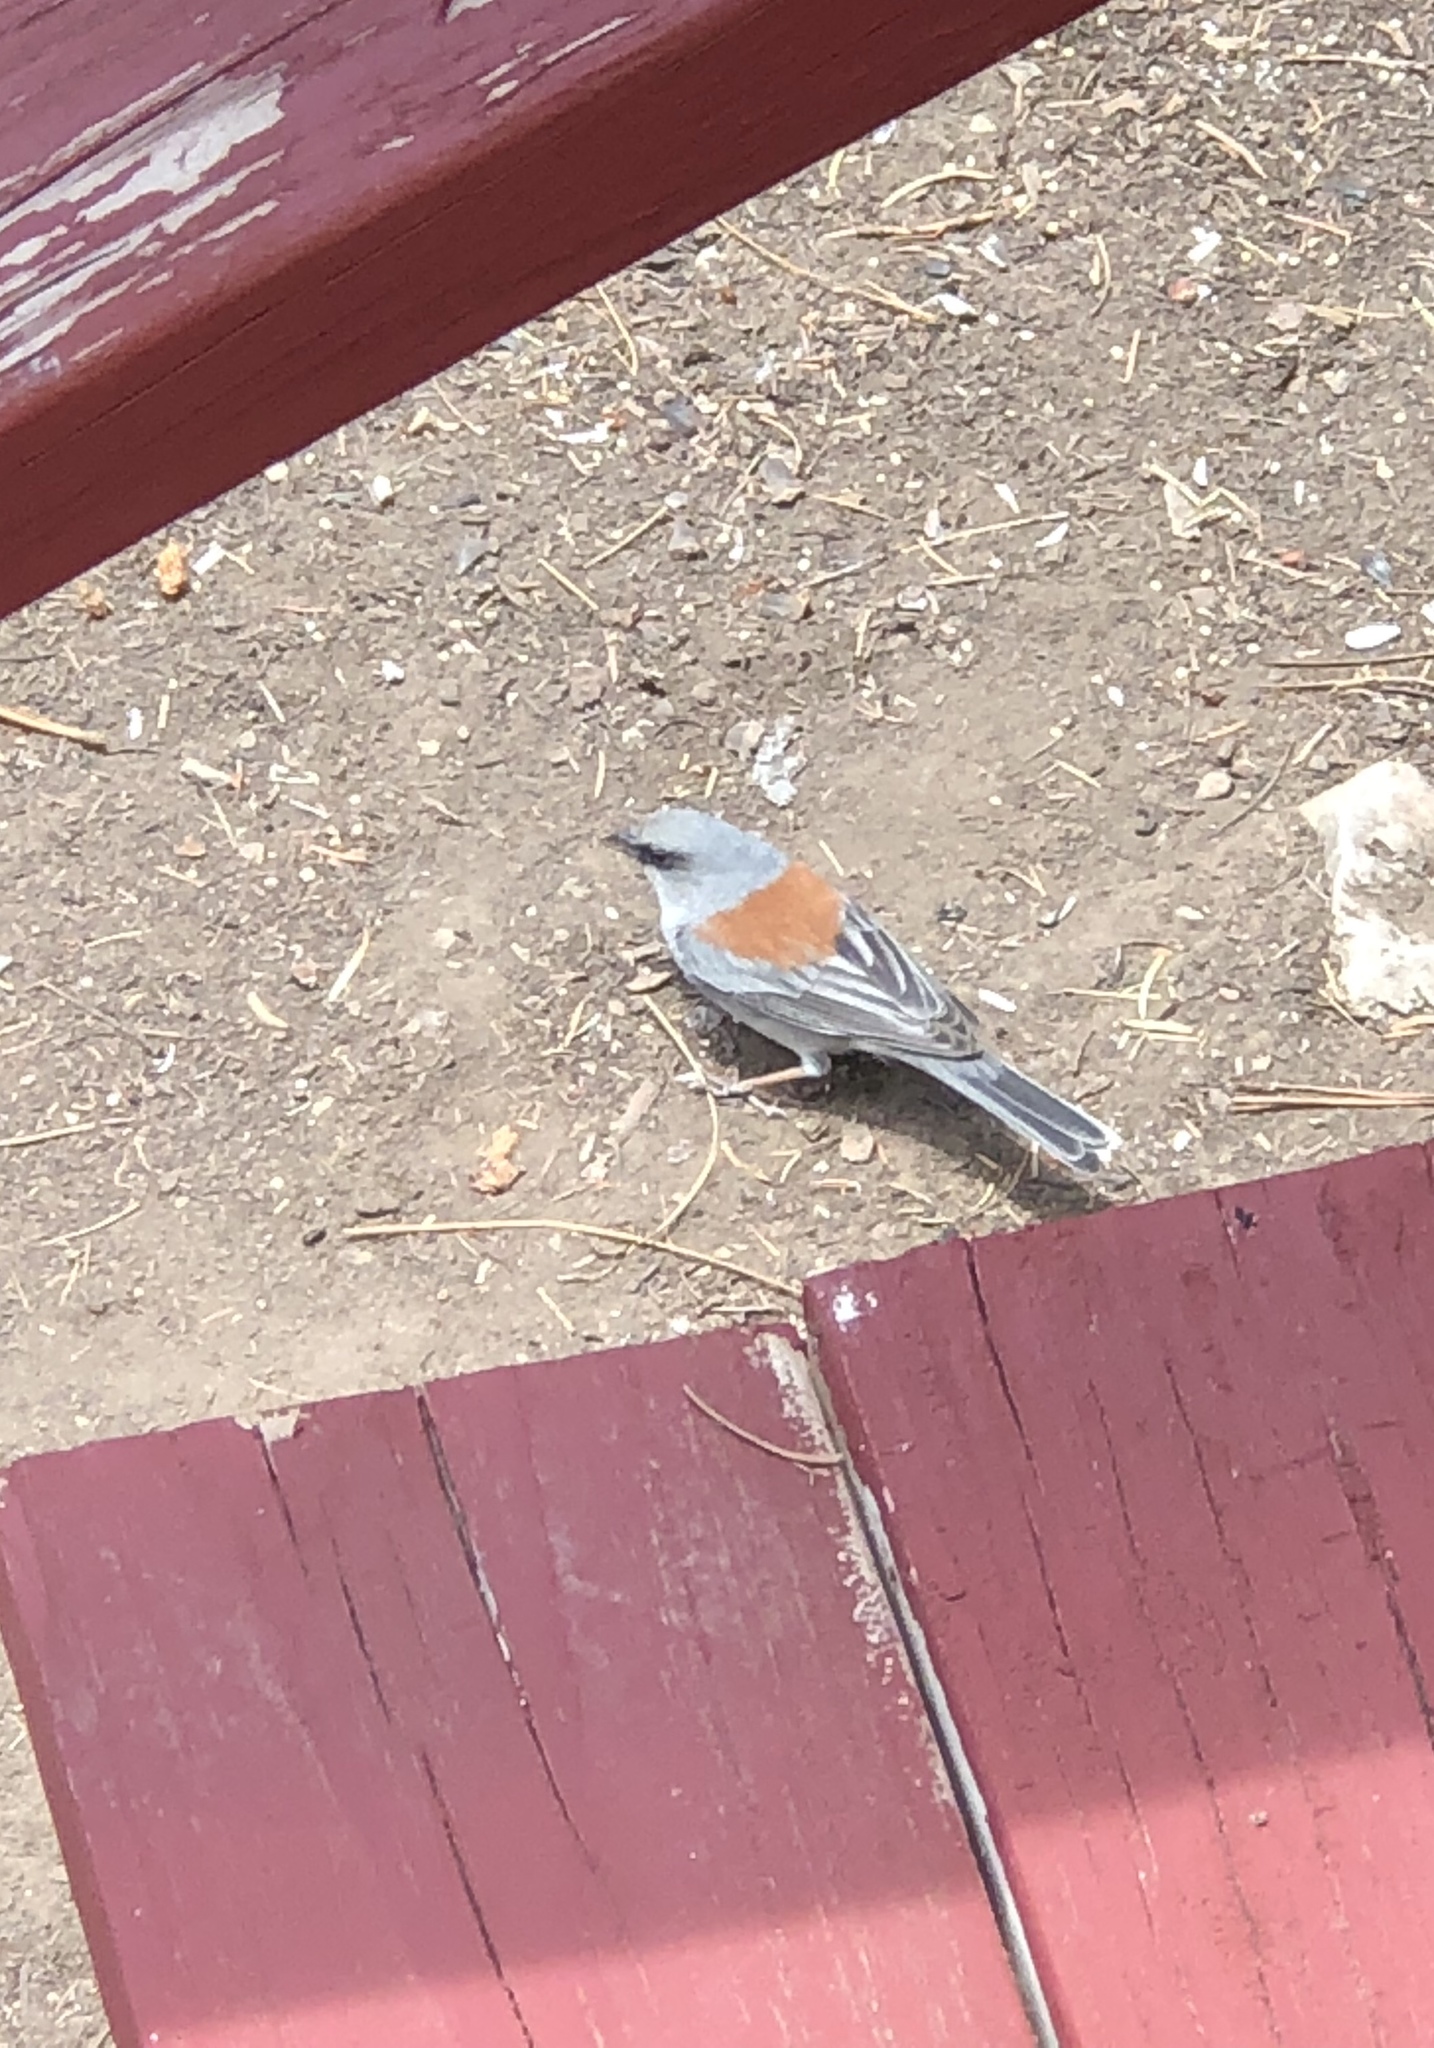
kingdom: Animalia
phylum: Chordata
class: Aves
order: Passeriformes
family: Passerellidae
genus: Junco
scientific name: Junco hyemalis
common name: Dark-eyed junco
